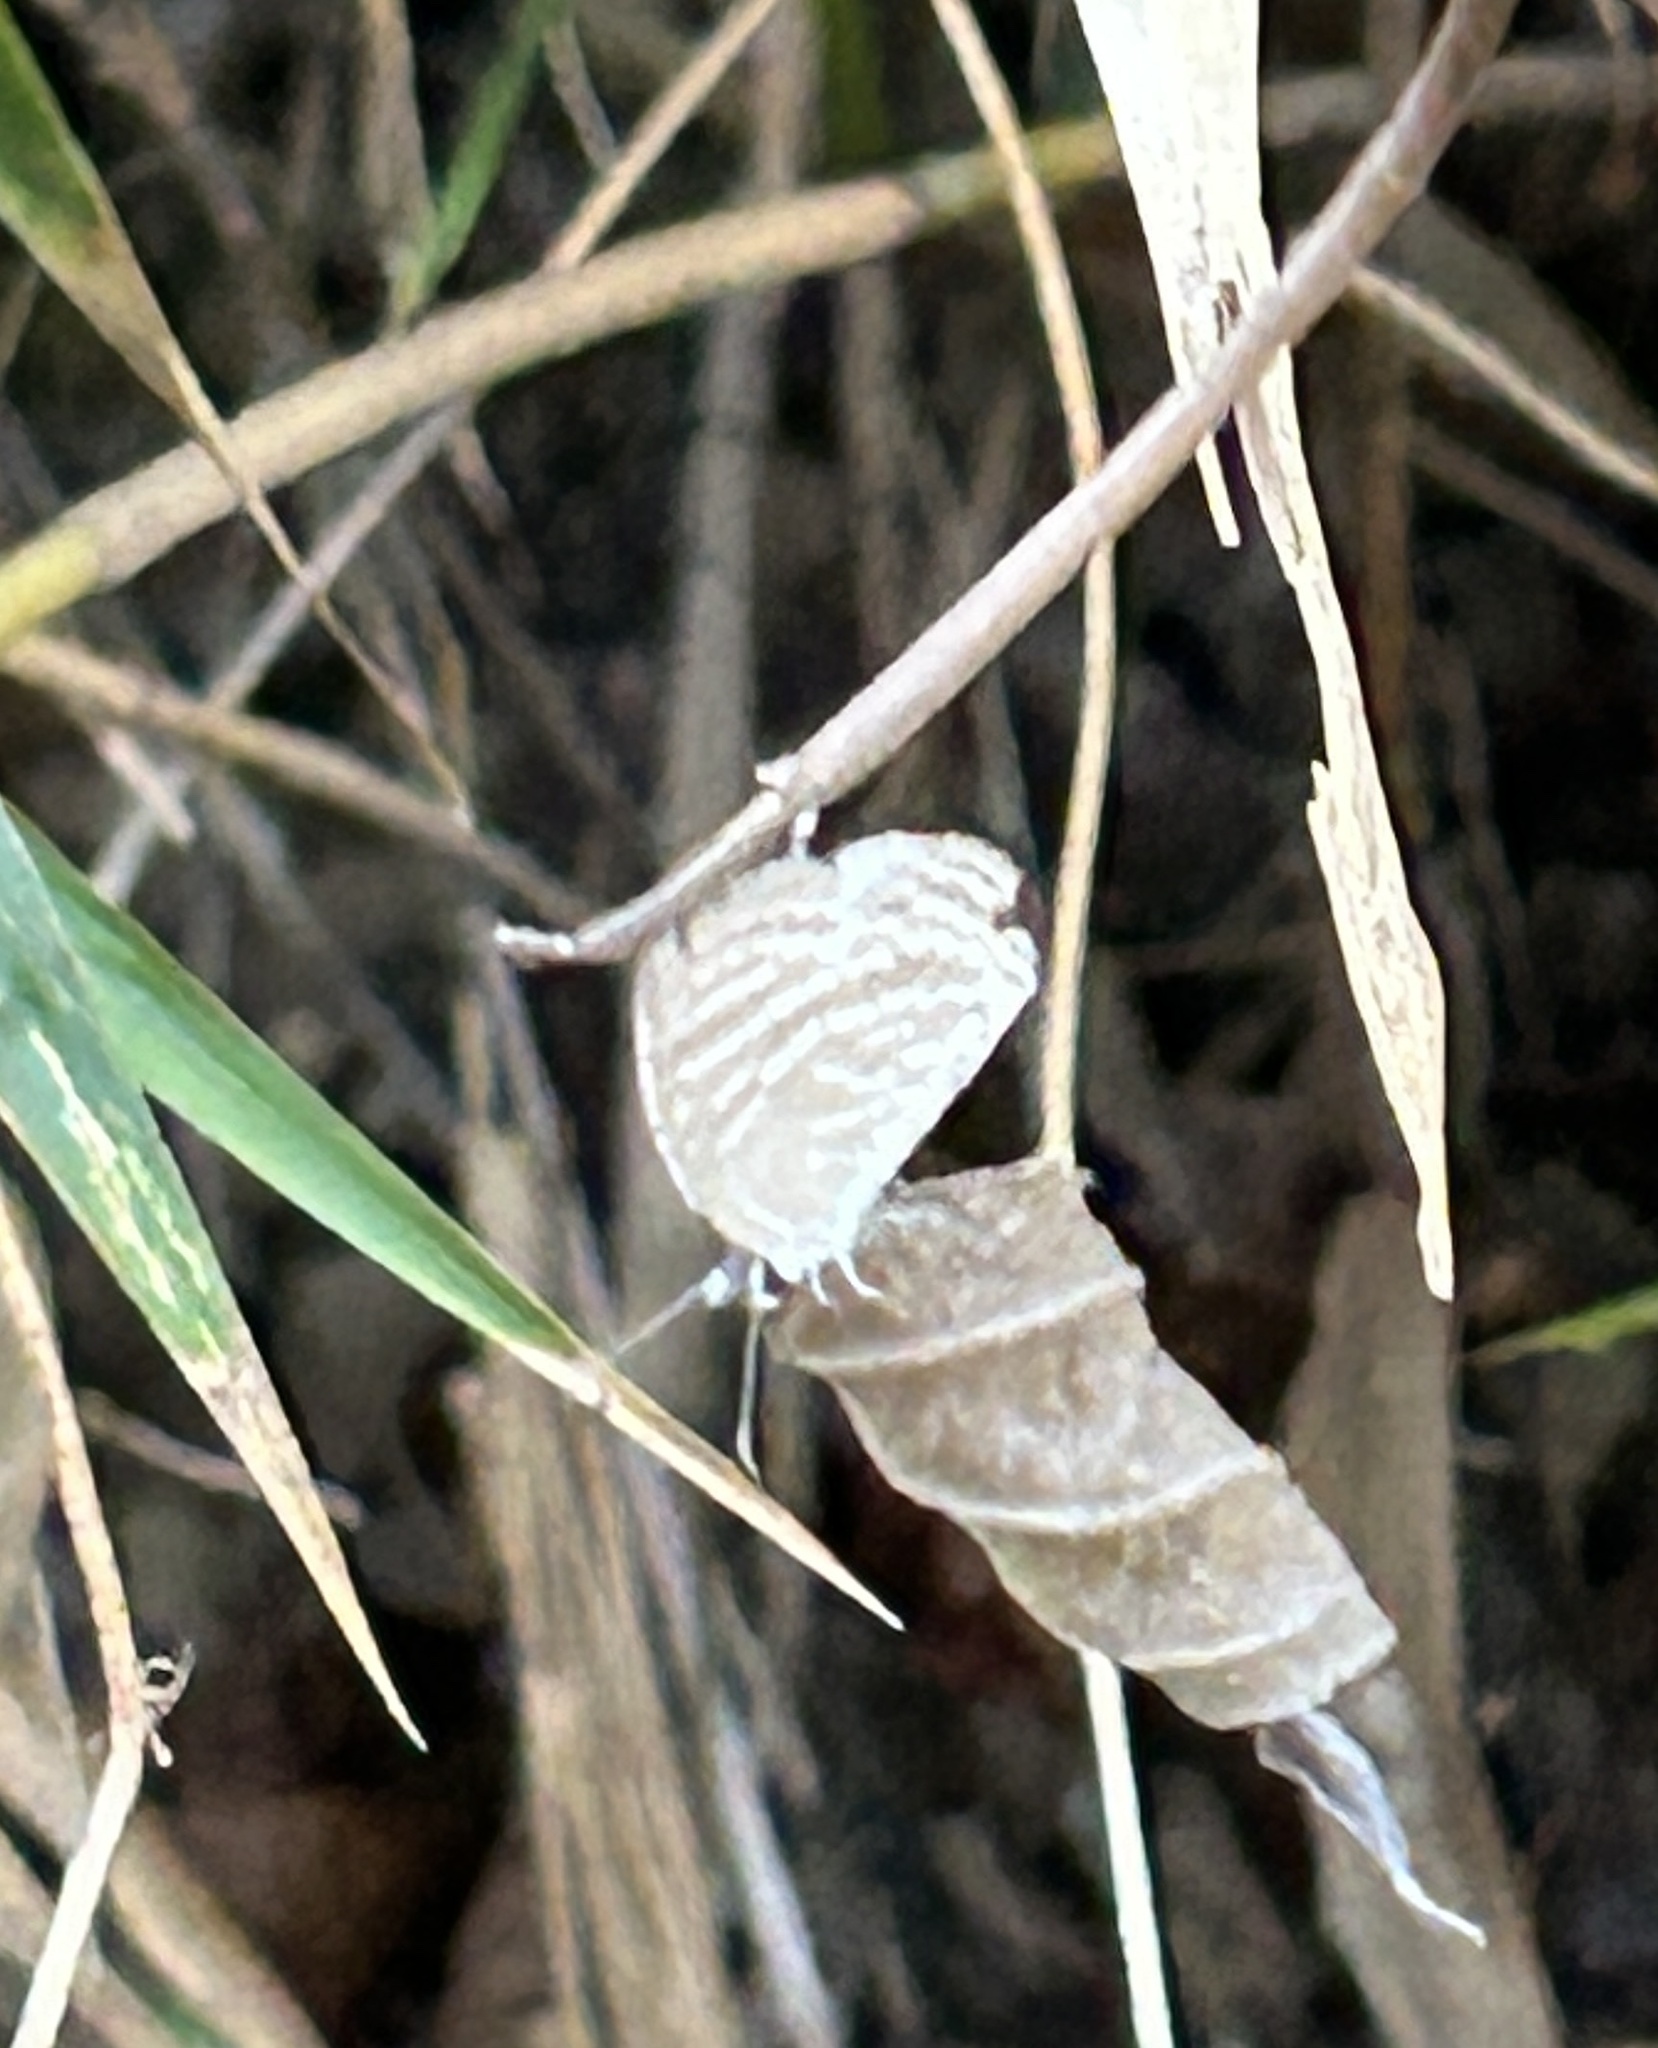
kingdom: Animalia
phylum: Arthropoda
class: Insecta
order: Lepidoptera
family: Lycaenidae
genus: Jamides
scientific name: Jamides celeno
